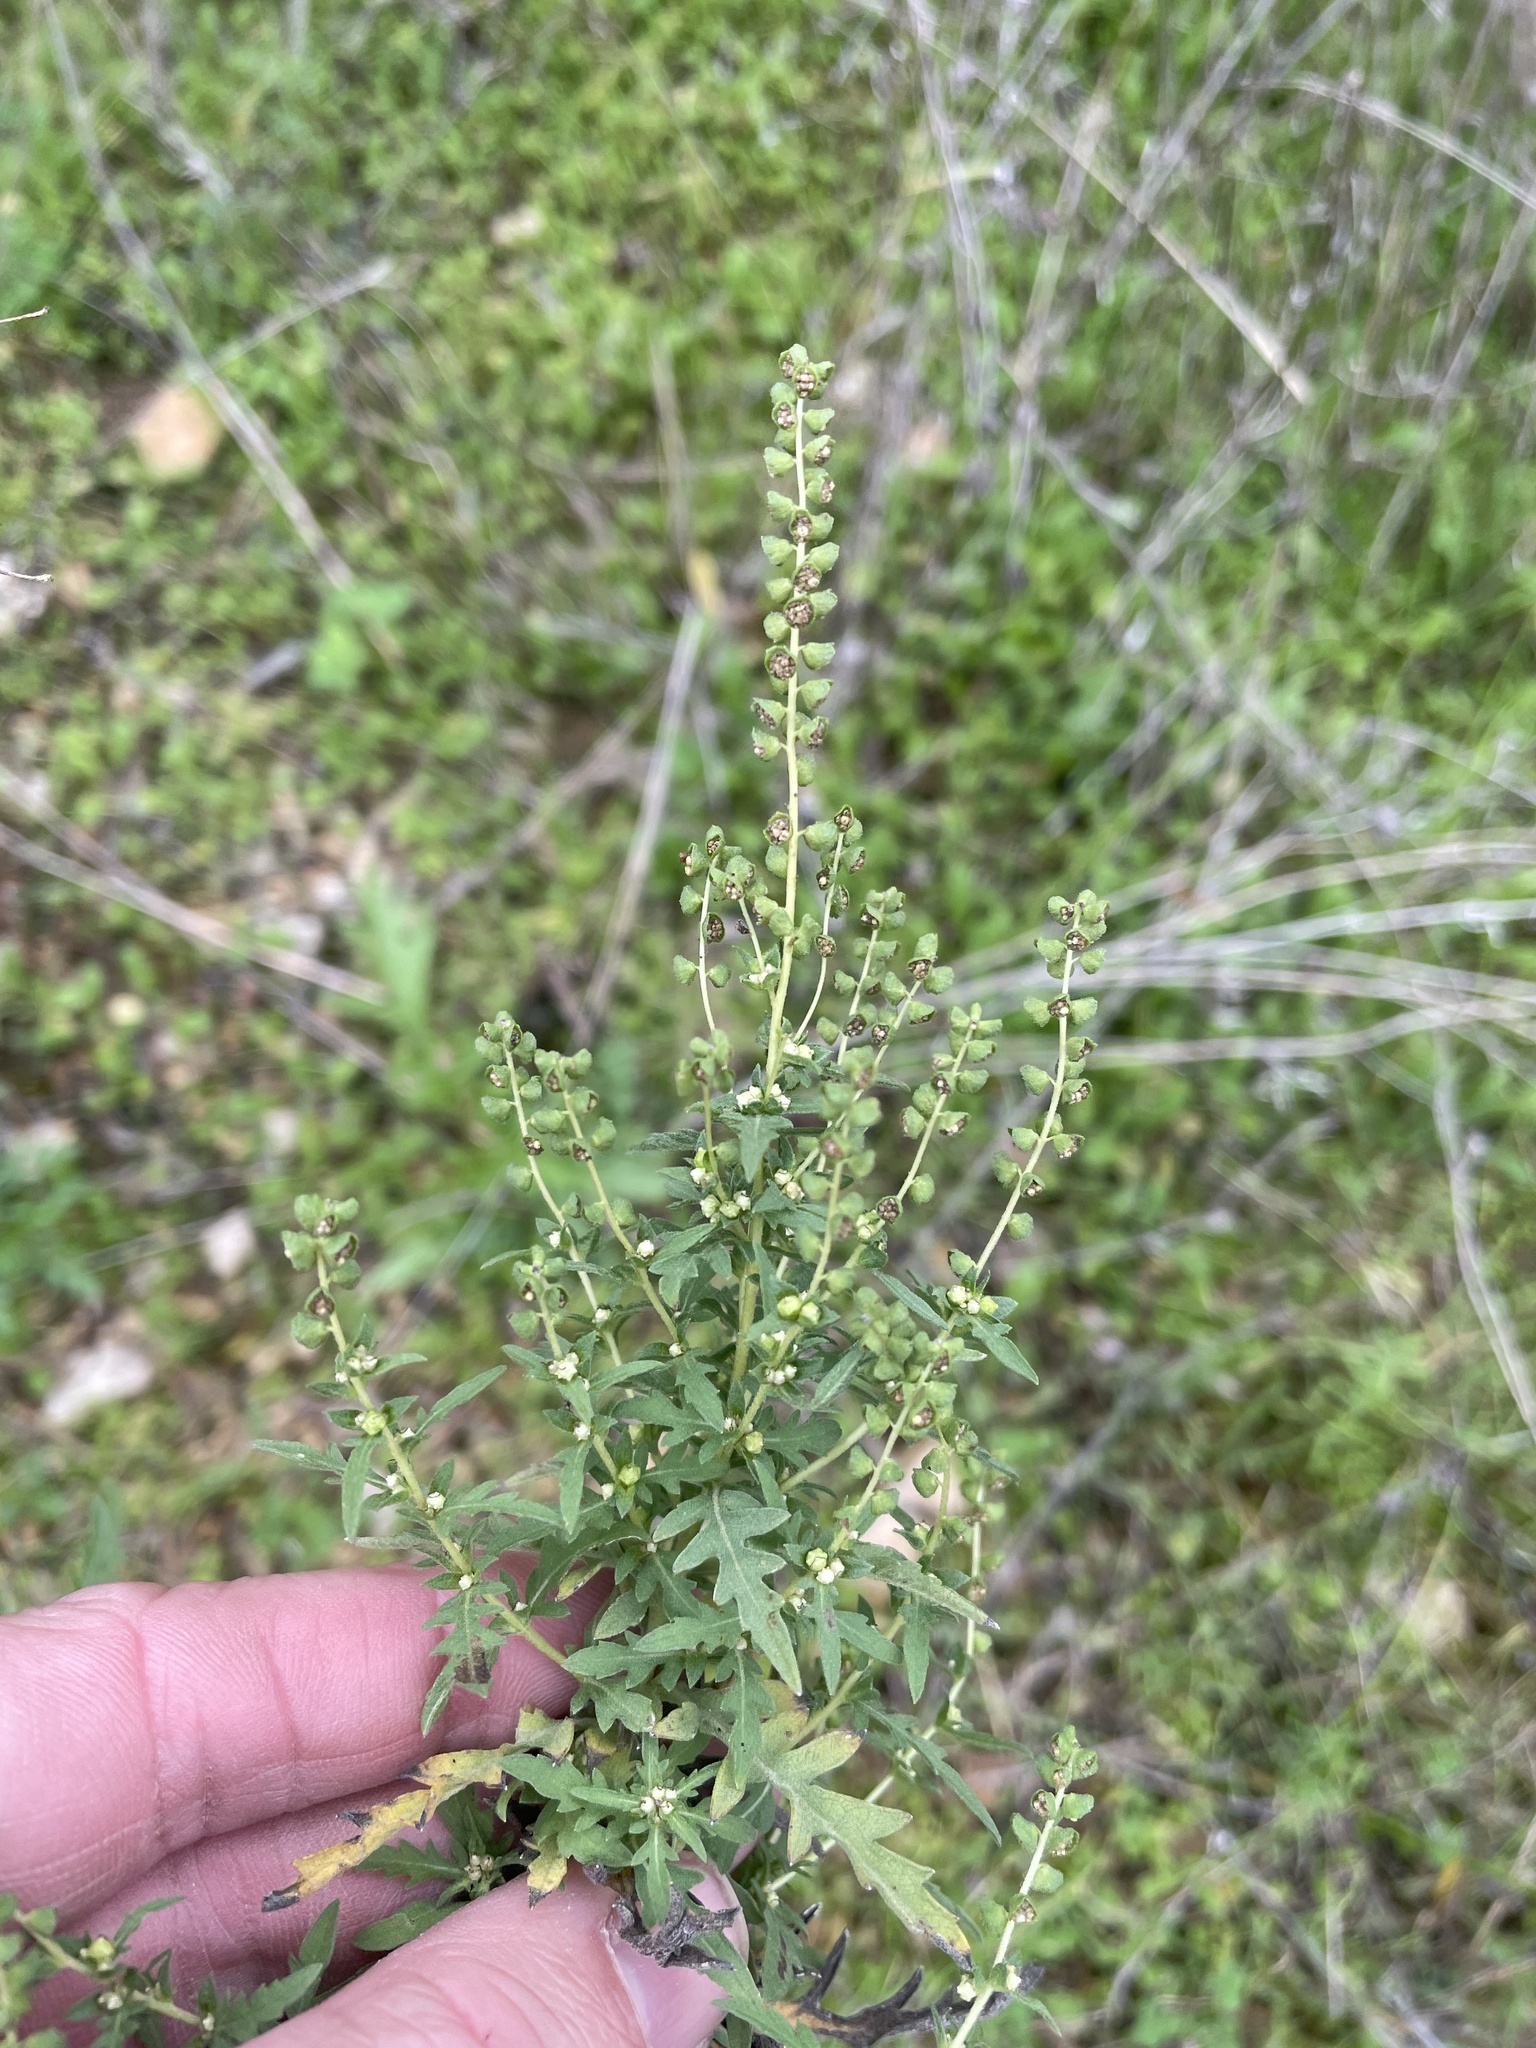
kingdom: Plantae
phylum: Tracheophyta
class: Magnoliopsida
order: Asterales
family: Asteraceae
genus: Ambrosia
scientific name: Ambrosia psilostachya
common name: Perennial ragweed
